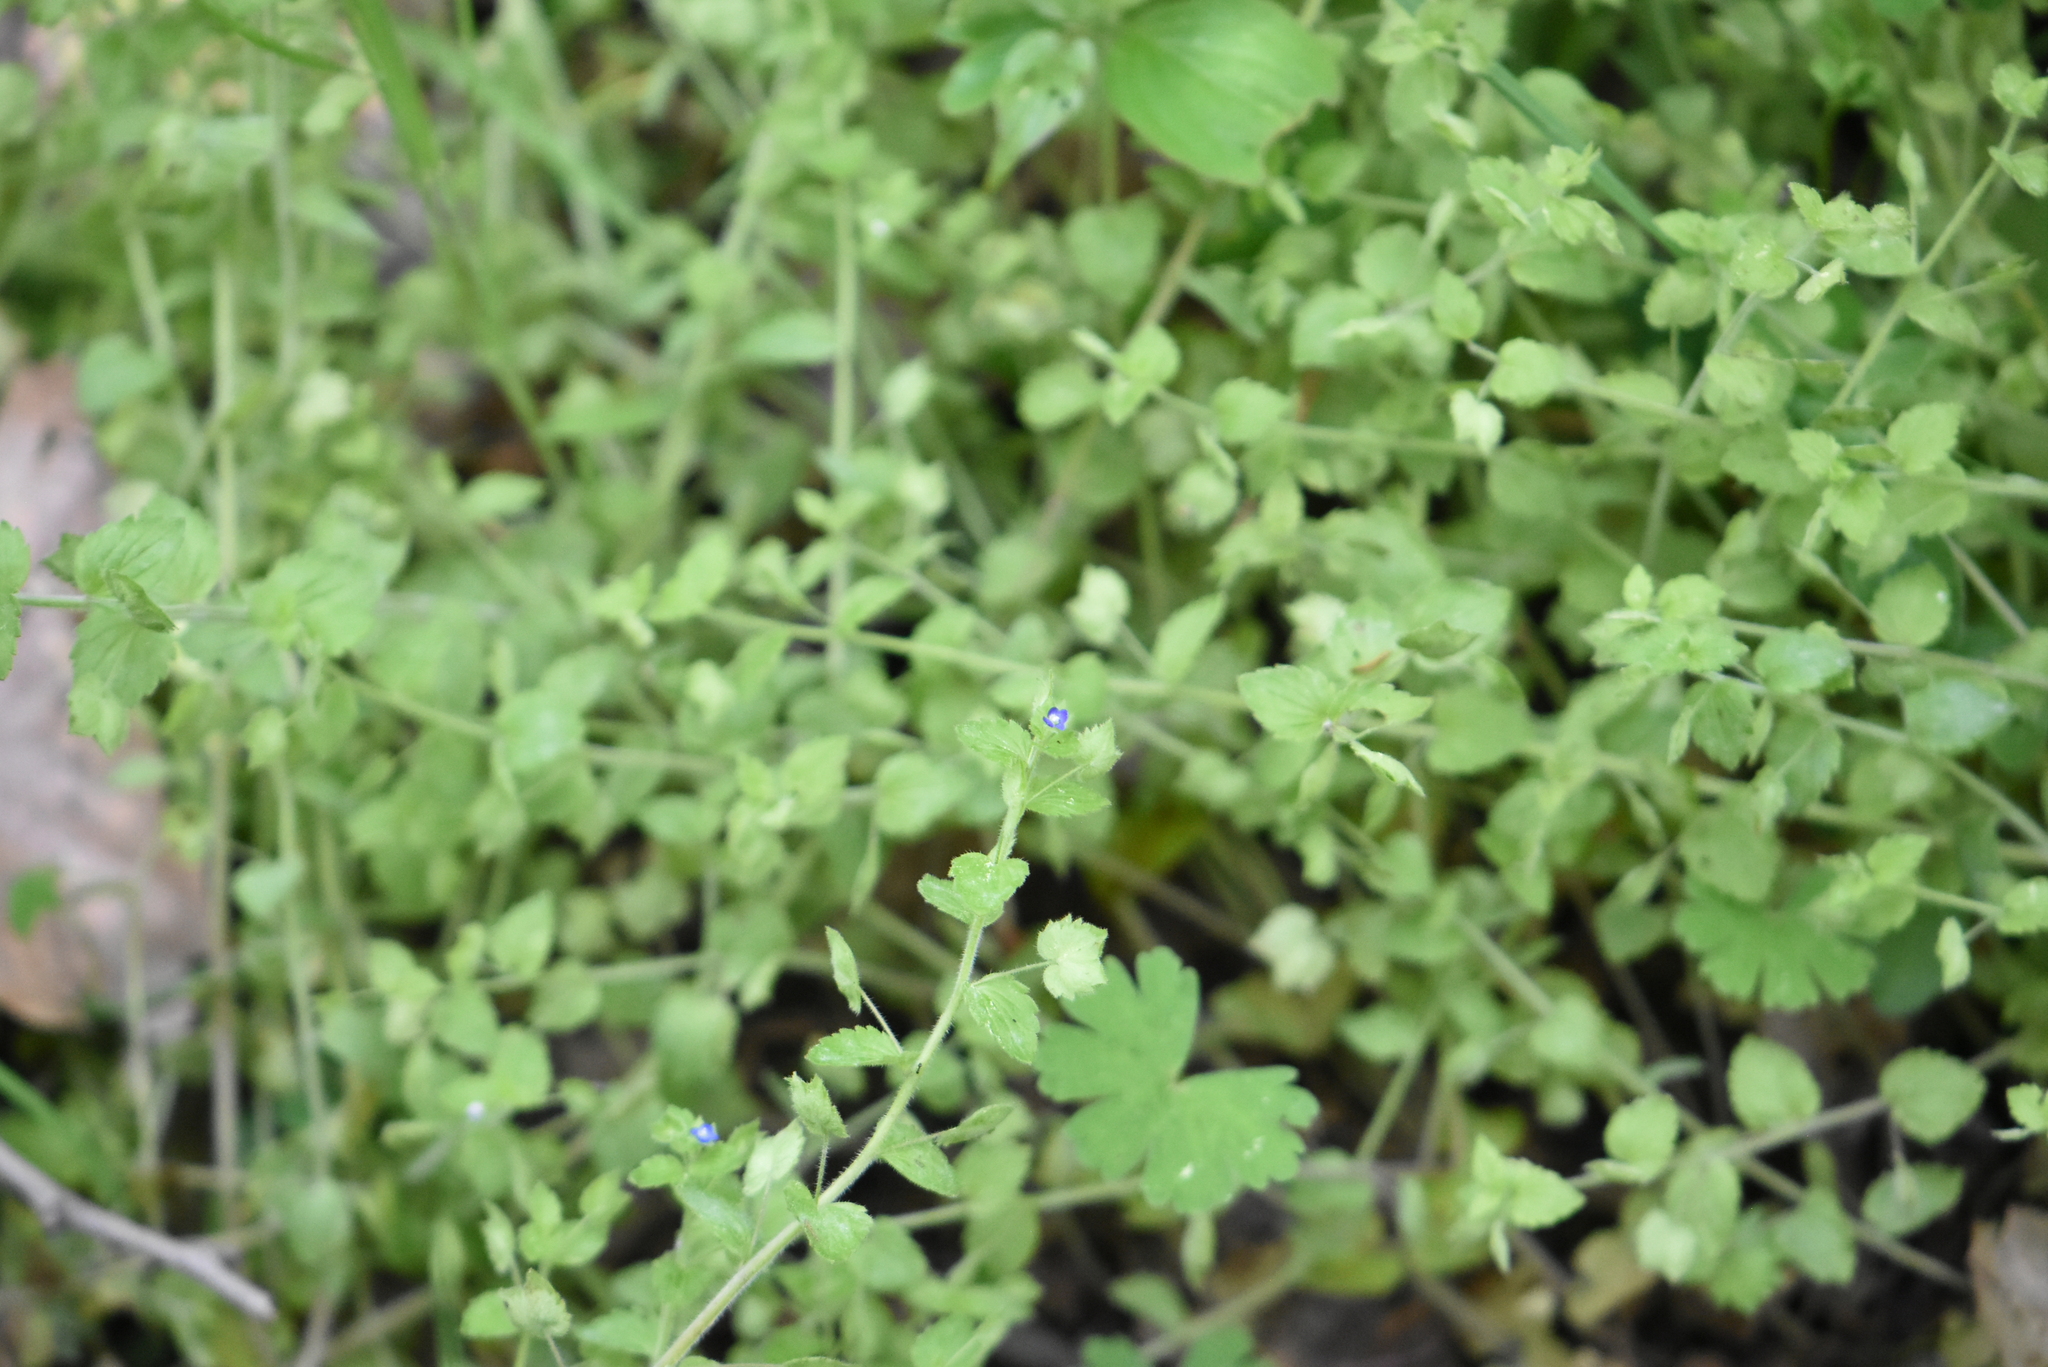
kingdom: Plantae
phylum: Tracheophyta
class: Magnoliopsida
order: Lamiales
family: Plantaginaceae
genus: Veronica
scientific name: Veronica crista-galli
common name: Crested field-speedwell
